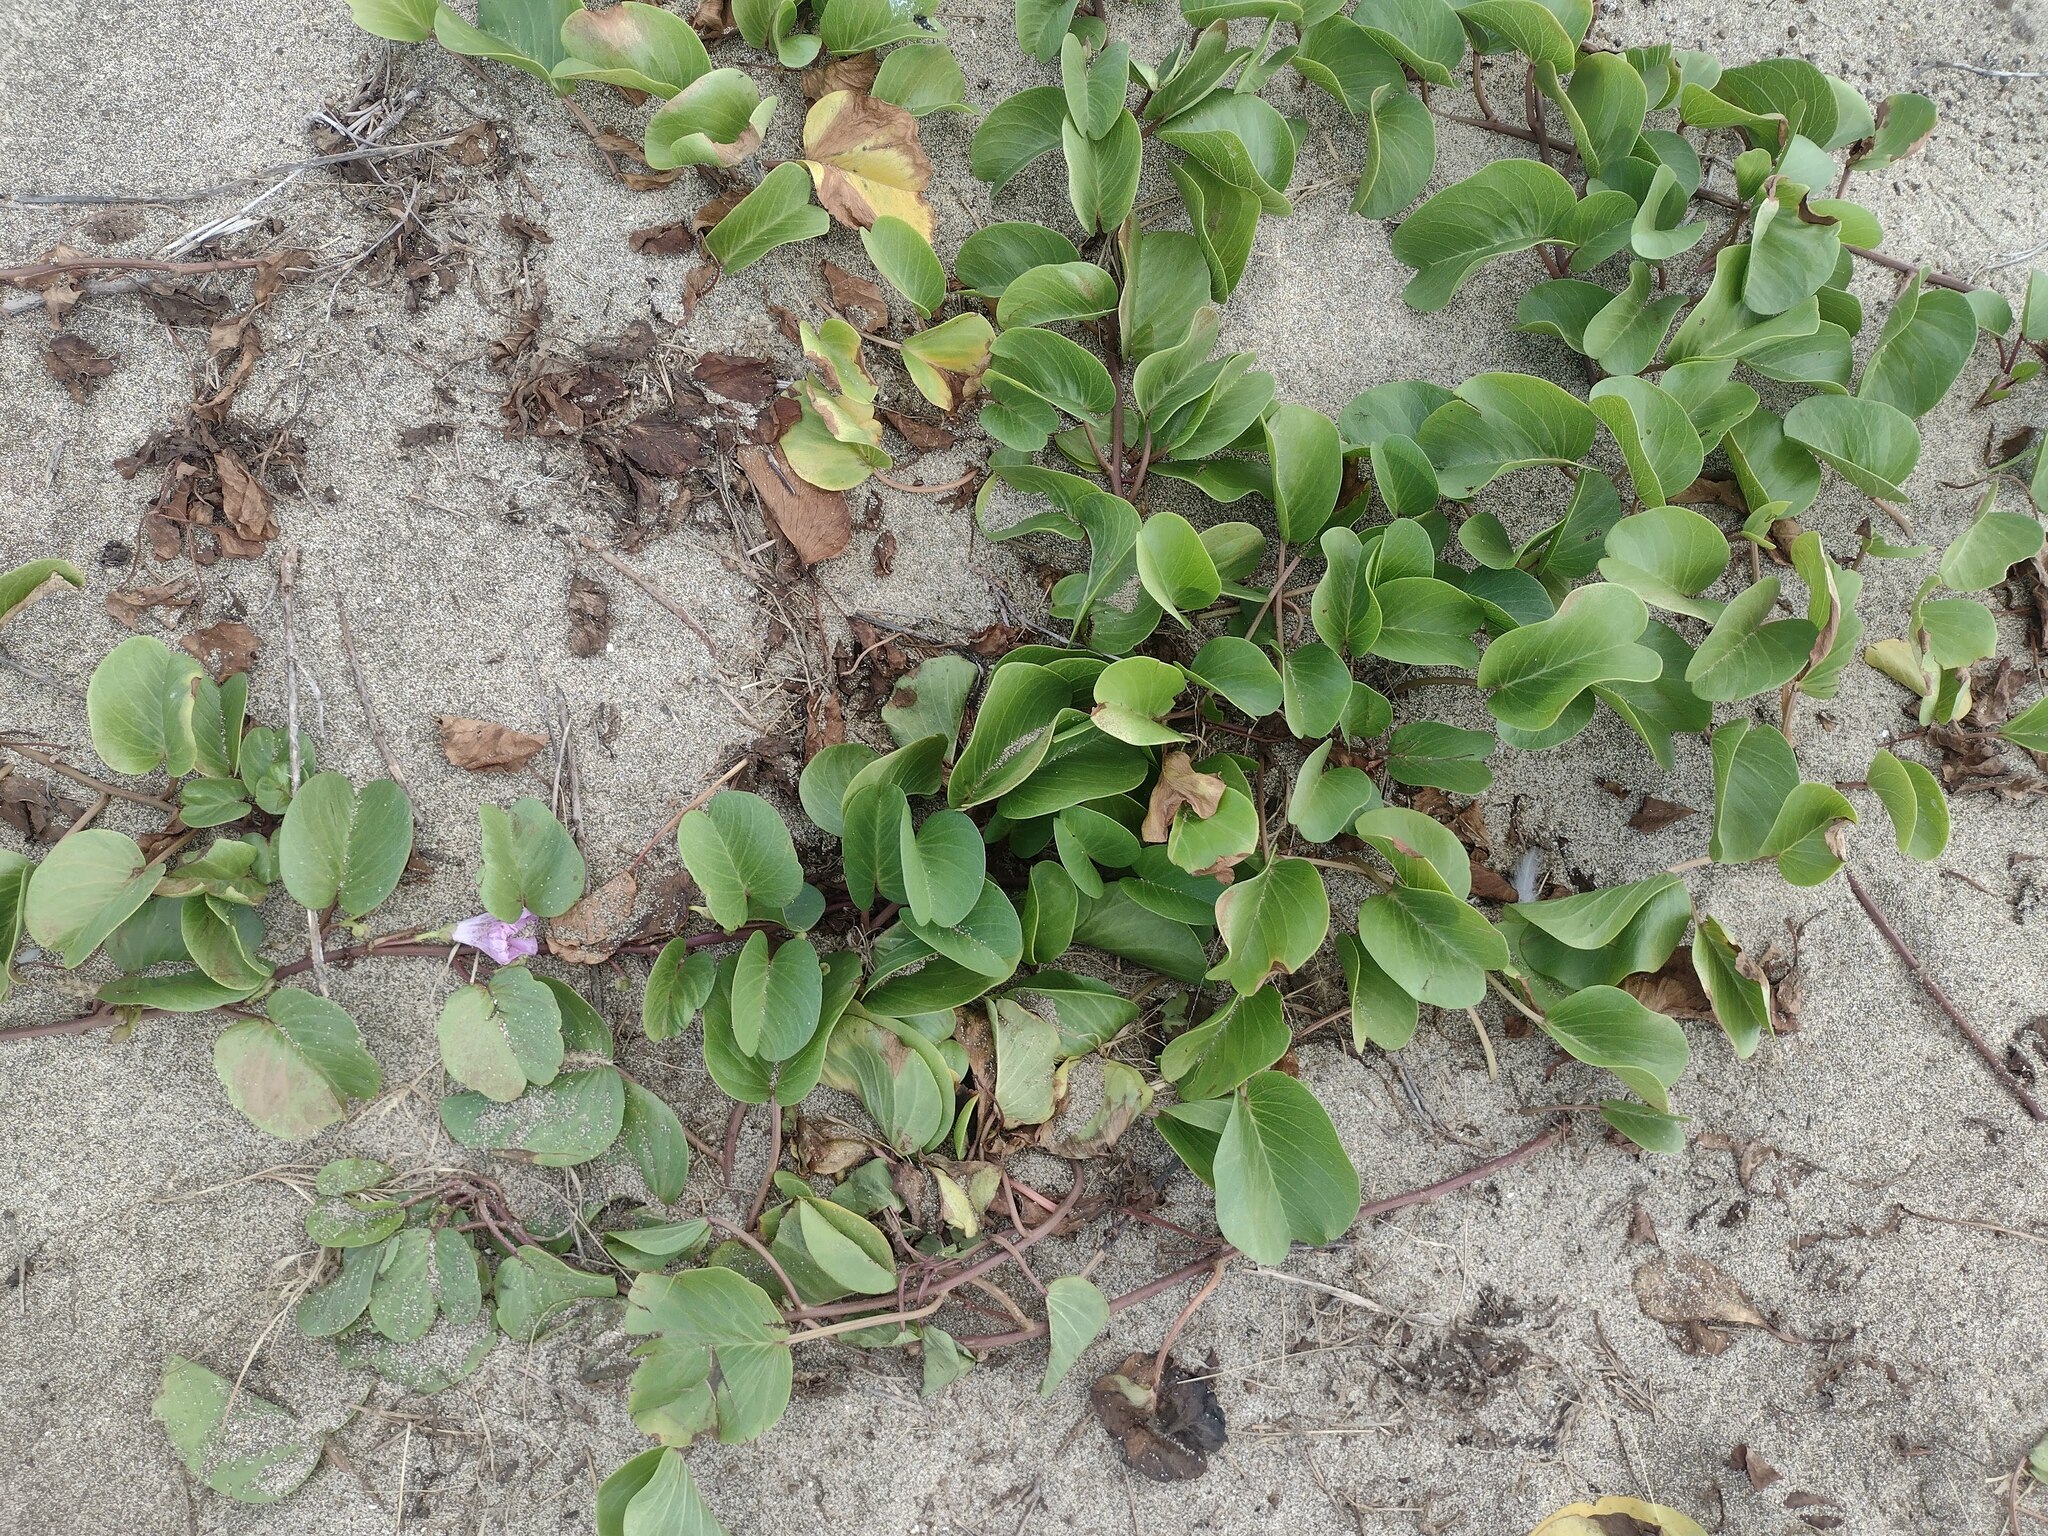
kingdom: Plantae
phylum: Tracheophyta
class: Magnoliopsida
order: Solanales
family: Convolvulaceae
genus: Ipomoea
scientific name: Ipomoea pes-caprae
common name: Beach morning glory
